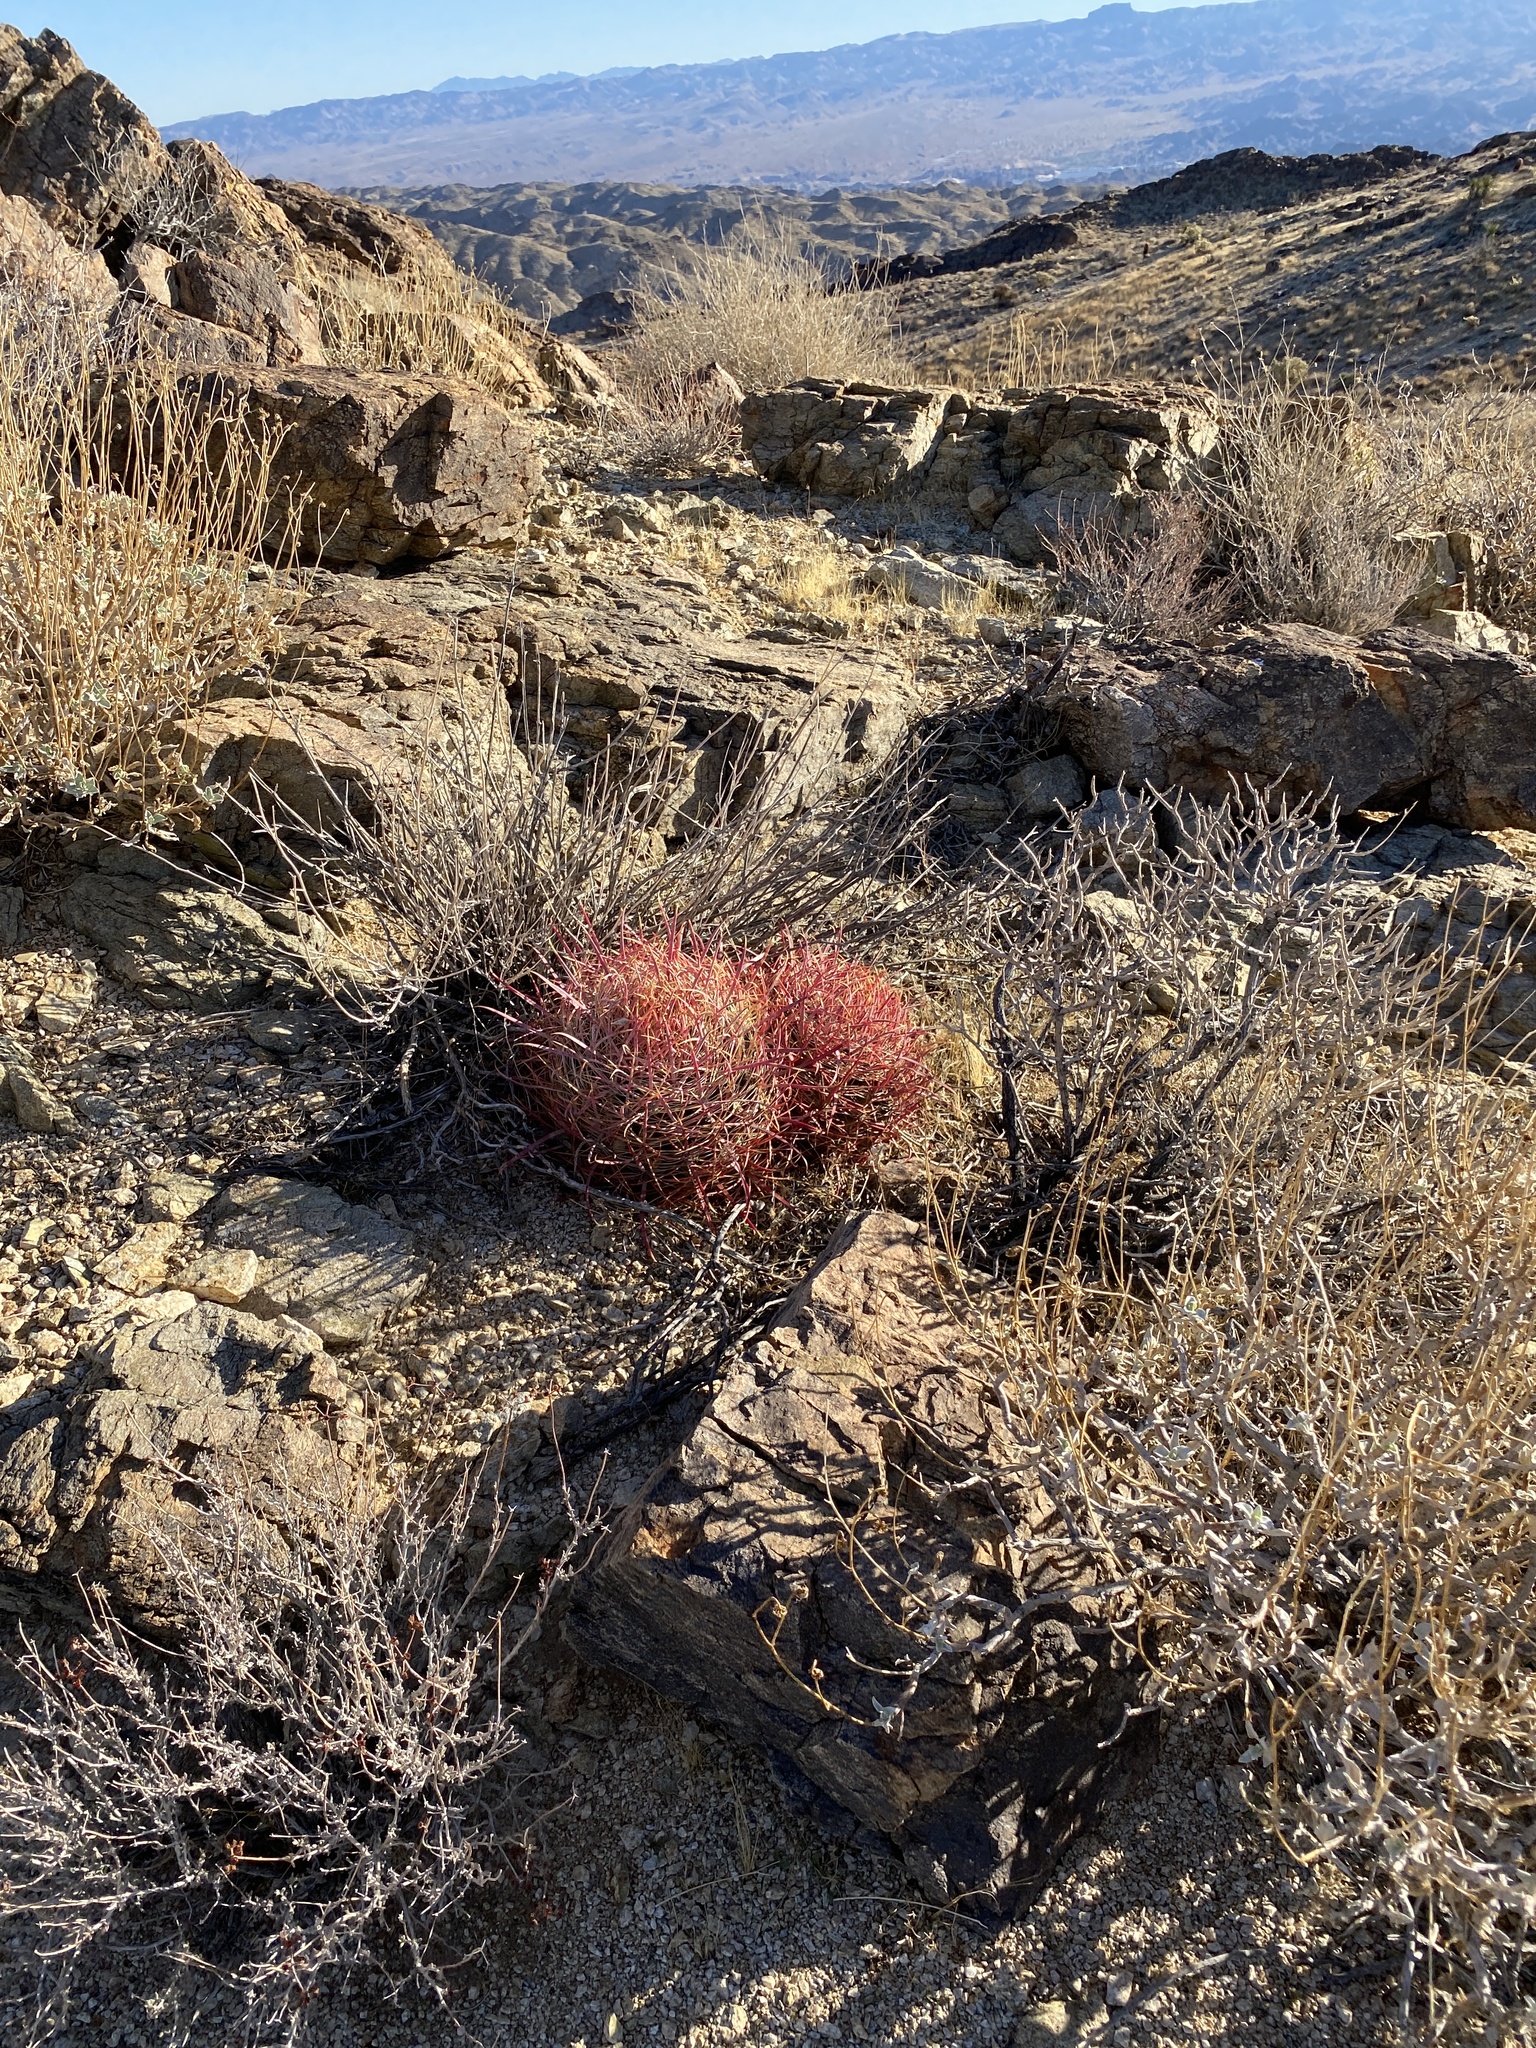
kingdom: Plantae
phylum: Tracheophyta
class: Magnoliopsida
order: Caryophyllales
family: Cactaceae
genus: Ferocactus
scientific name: Ferocactus cylindraceus
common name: California barrel cactus
